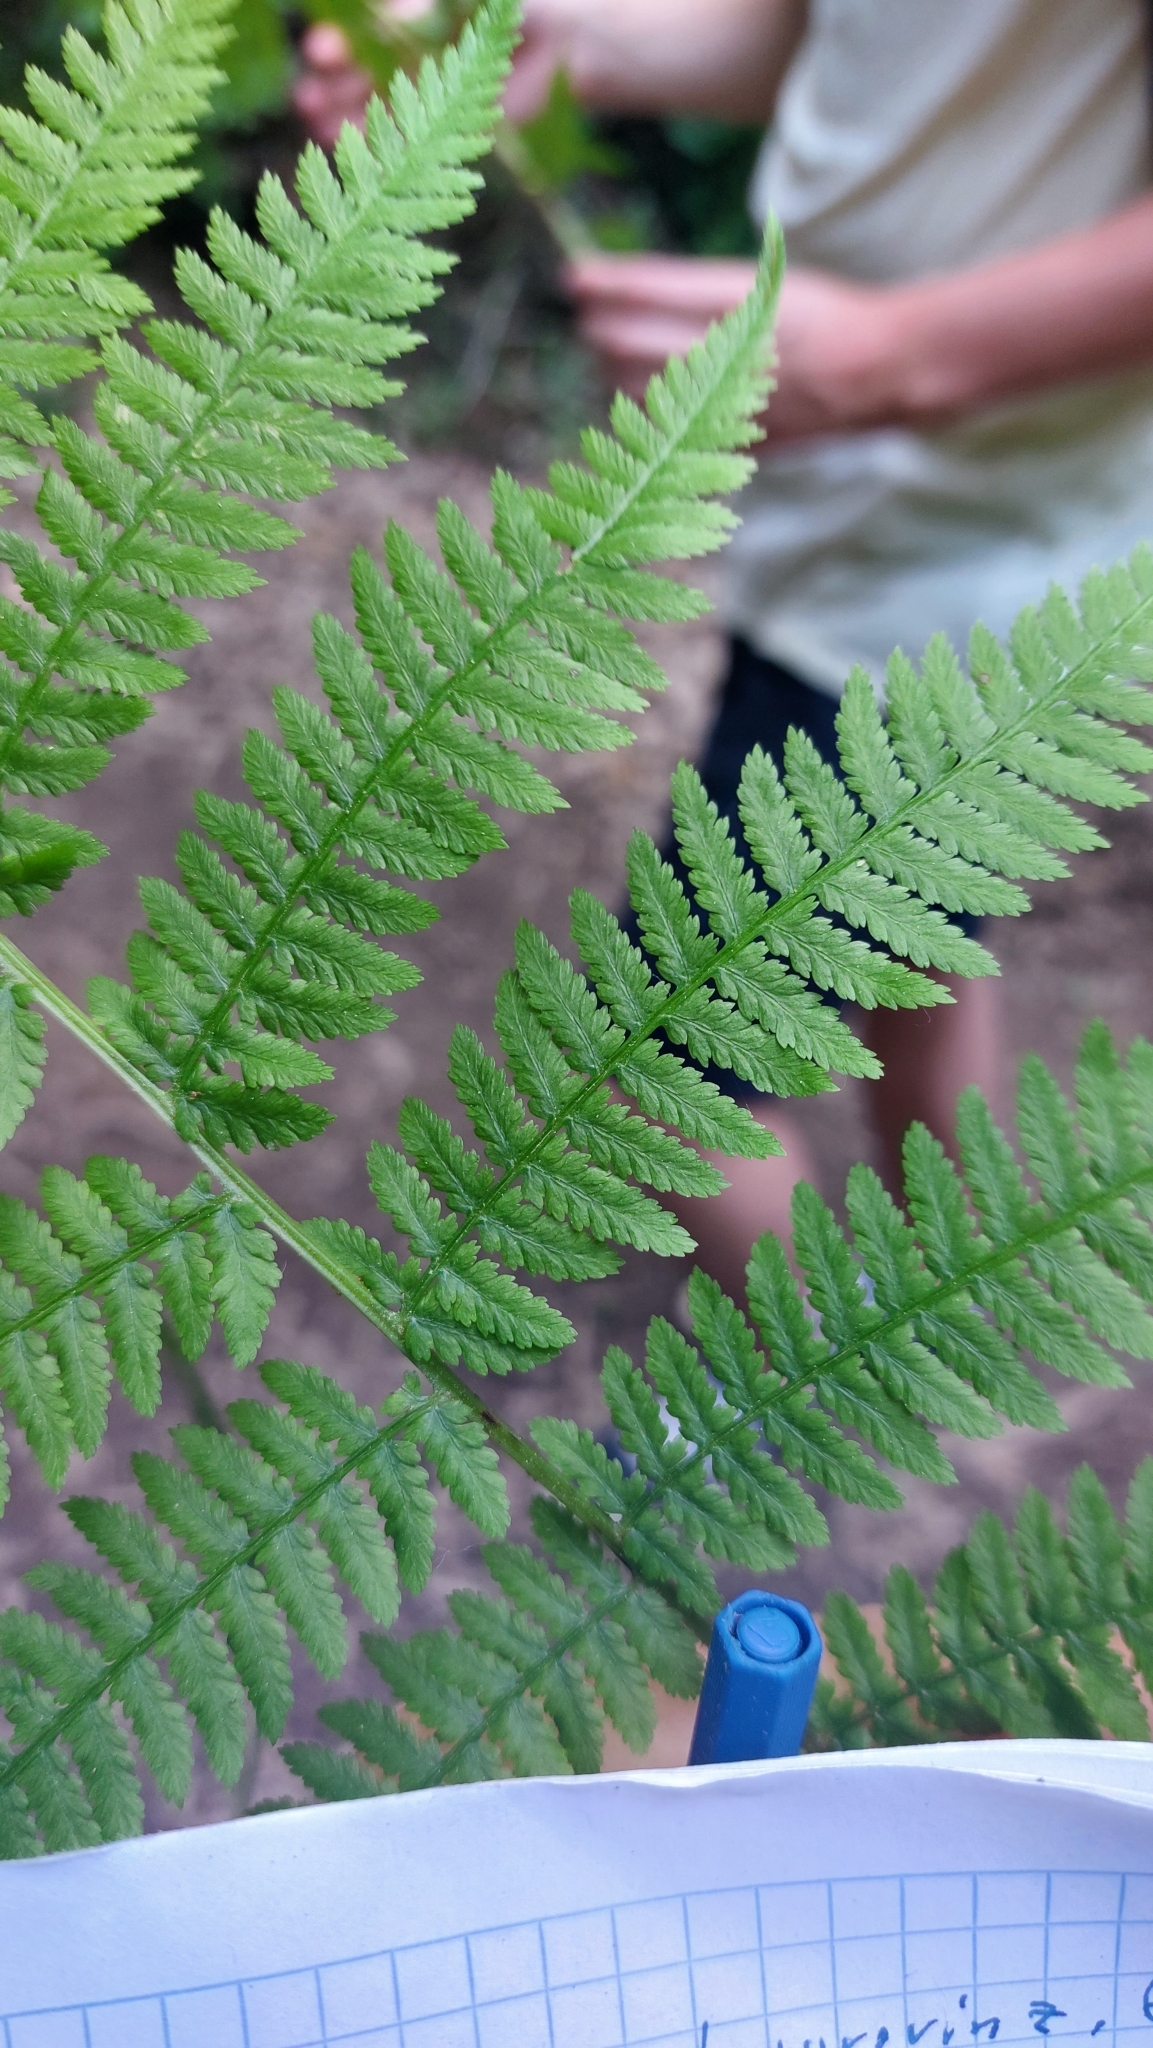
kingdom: Plantae
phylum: Tracheophyta
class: Polypodiopsida
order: Polypodiales
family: Athyriaceae
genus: Athyrium
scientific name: Athyrium filix-femina
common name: Lady fern
